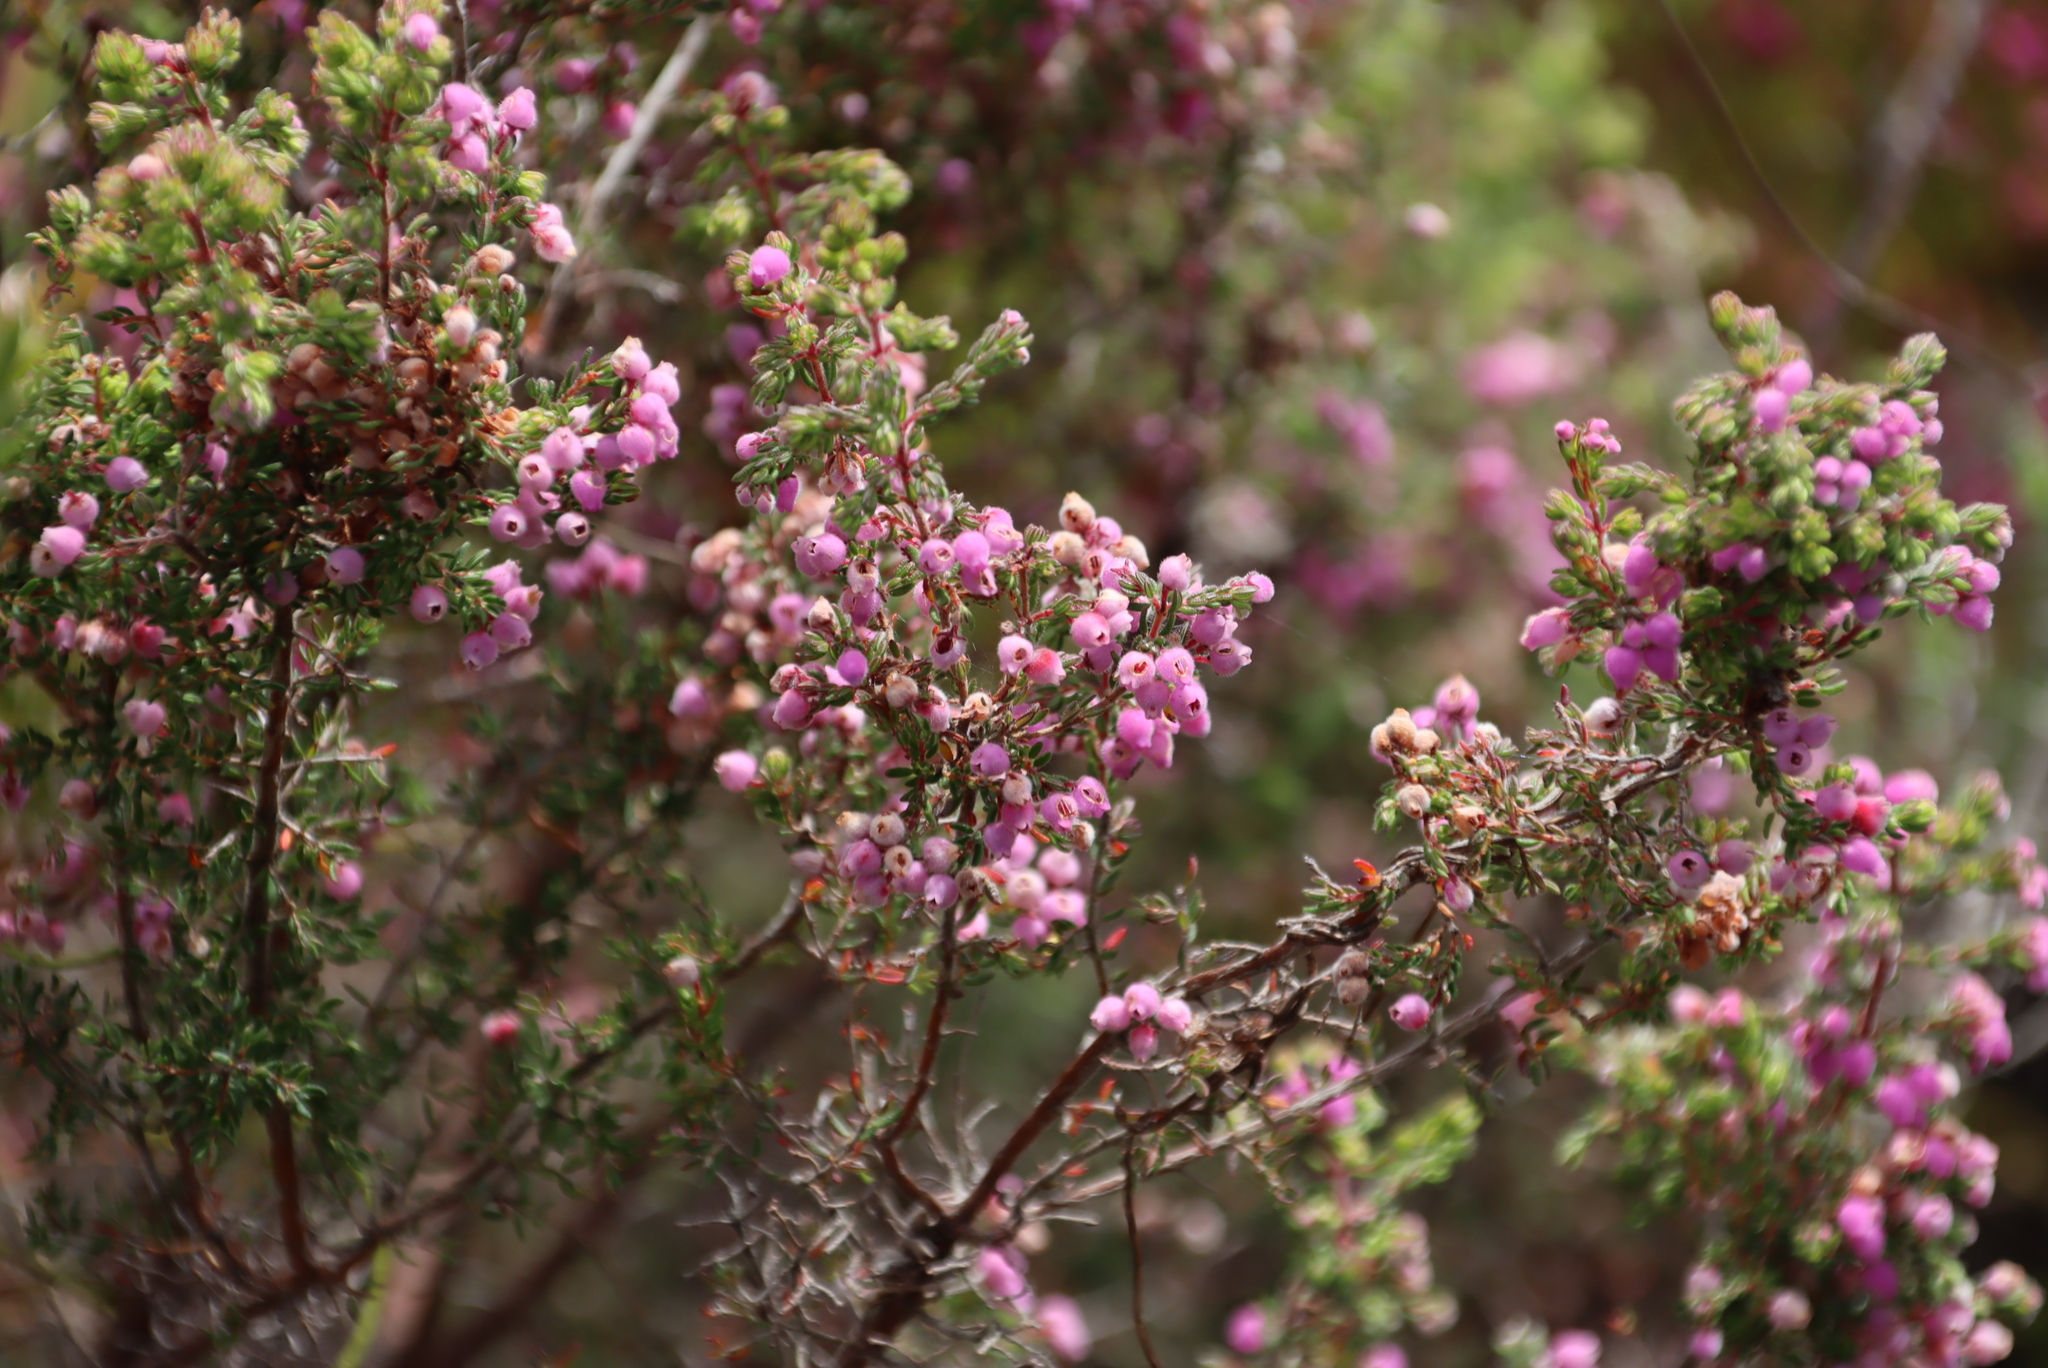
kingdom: Plantae
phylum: Tracheophyta
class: Magnoliopsida
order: Ericales
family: Ericaceae
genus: Erica
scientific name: Erica hirtiflora
